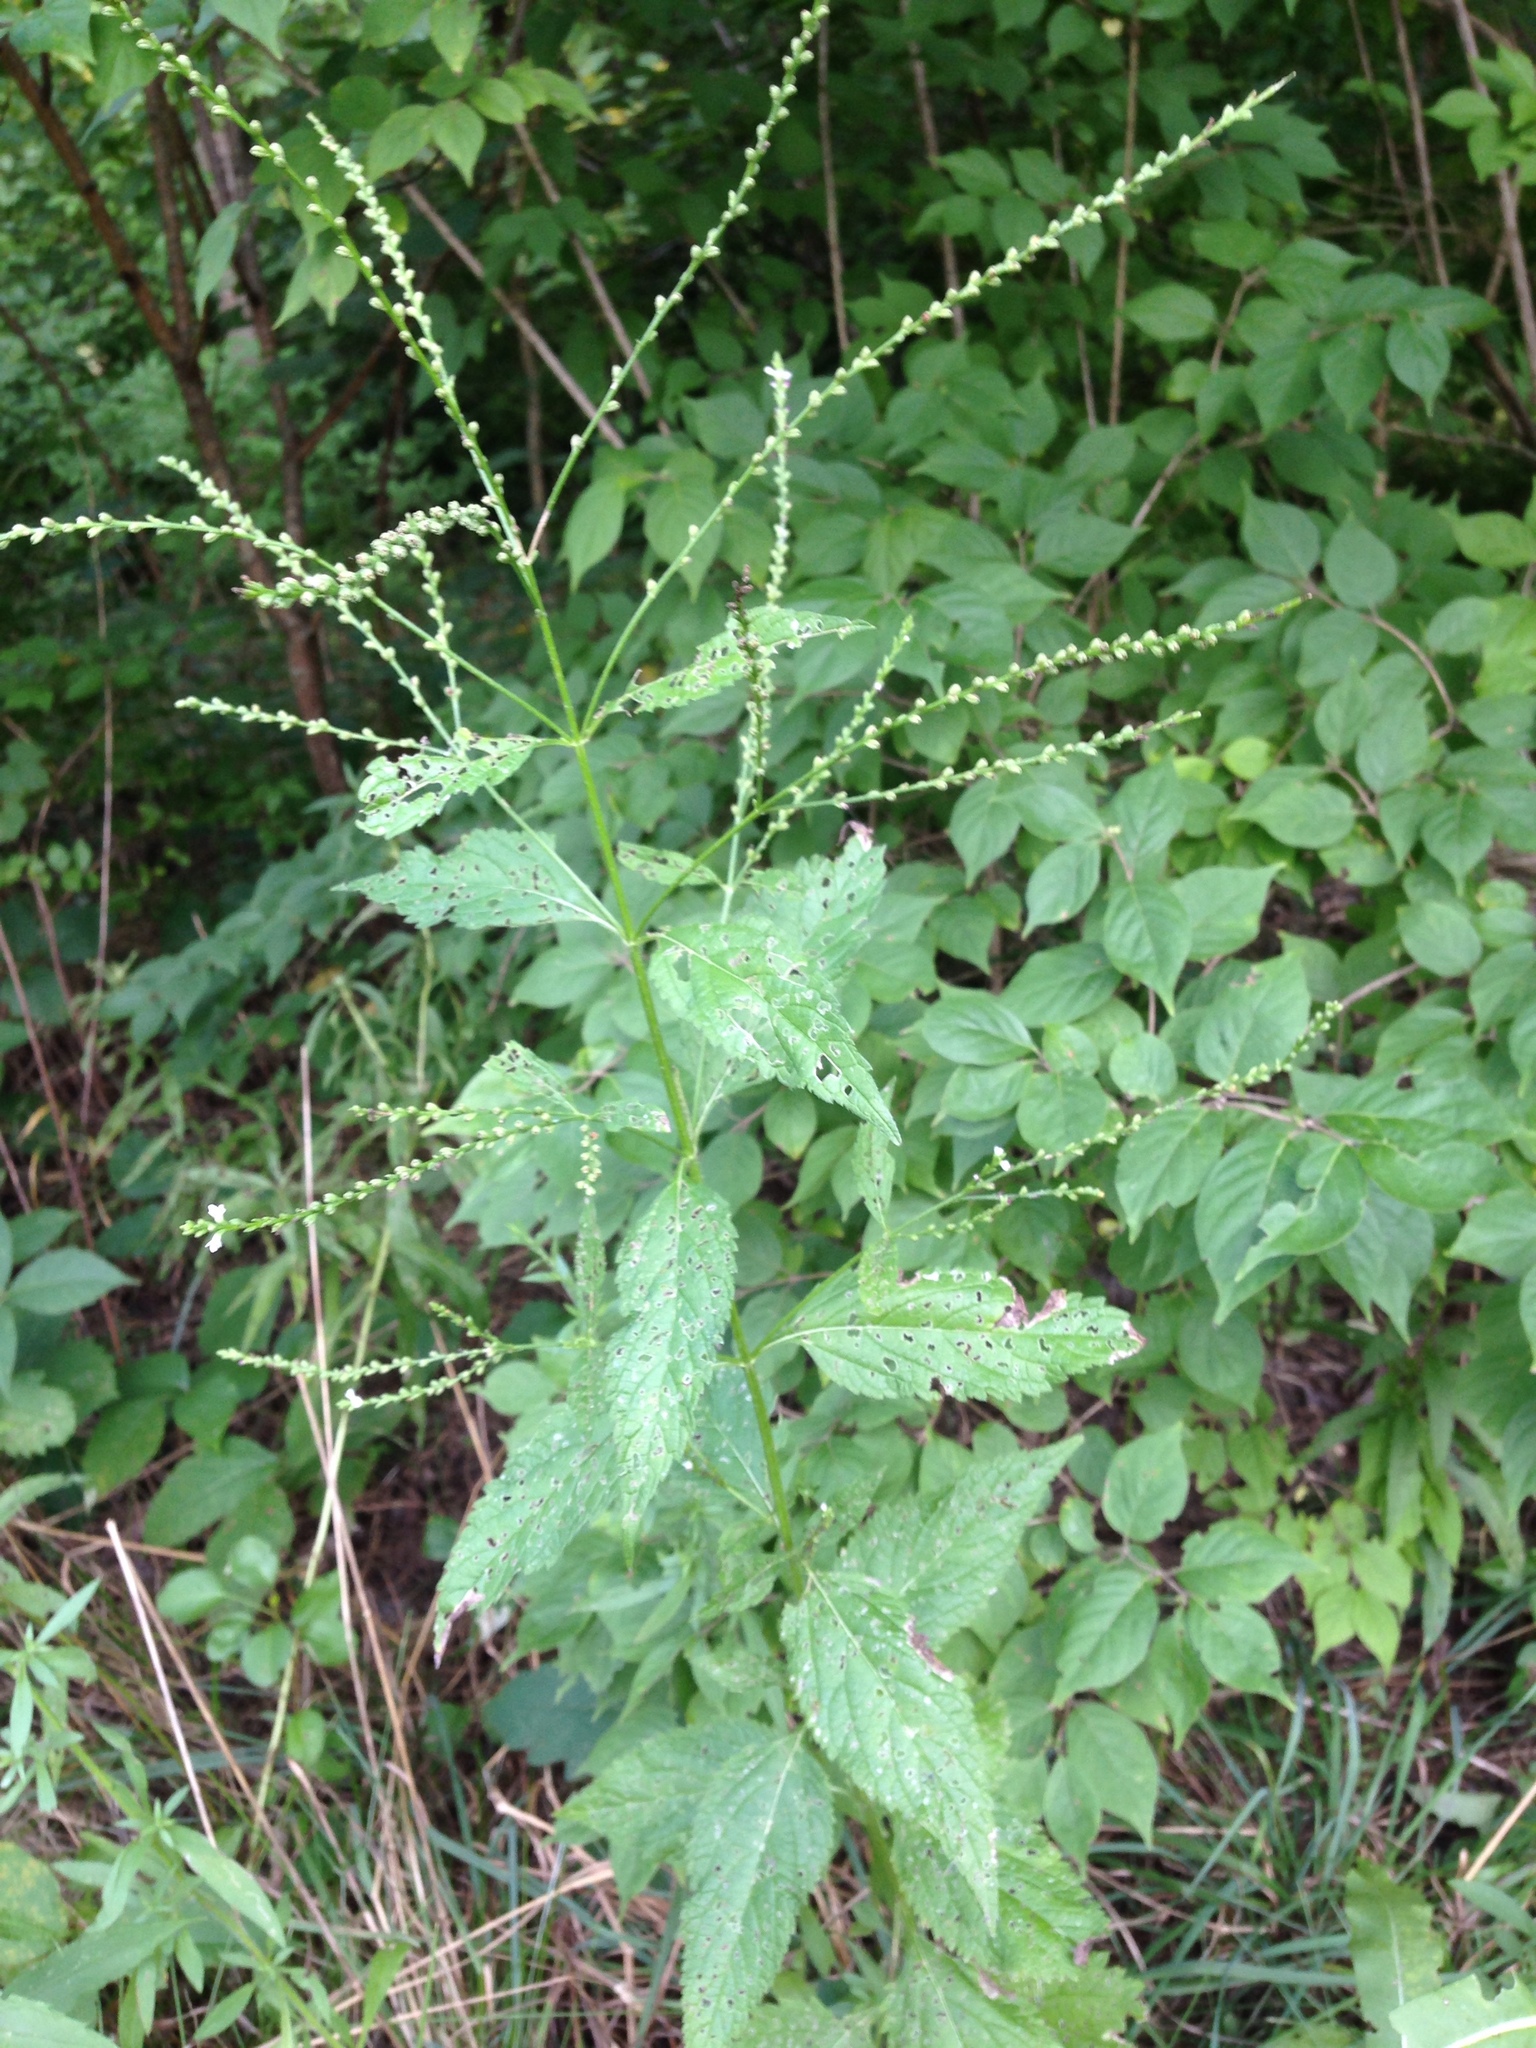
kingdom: Plantae
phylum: Tracheophyta
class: Magnoliopsida
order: Lamiales
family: Verbenaceae
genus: Verbena
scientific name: Verbena urticifolia
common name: Nettle-leaved vervain
